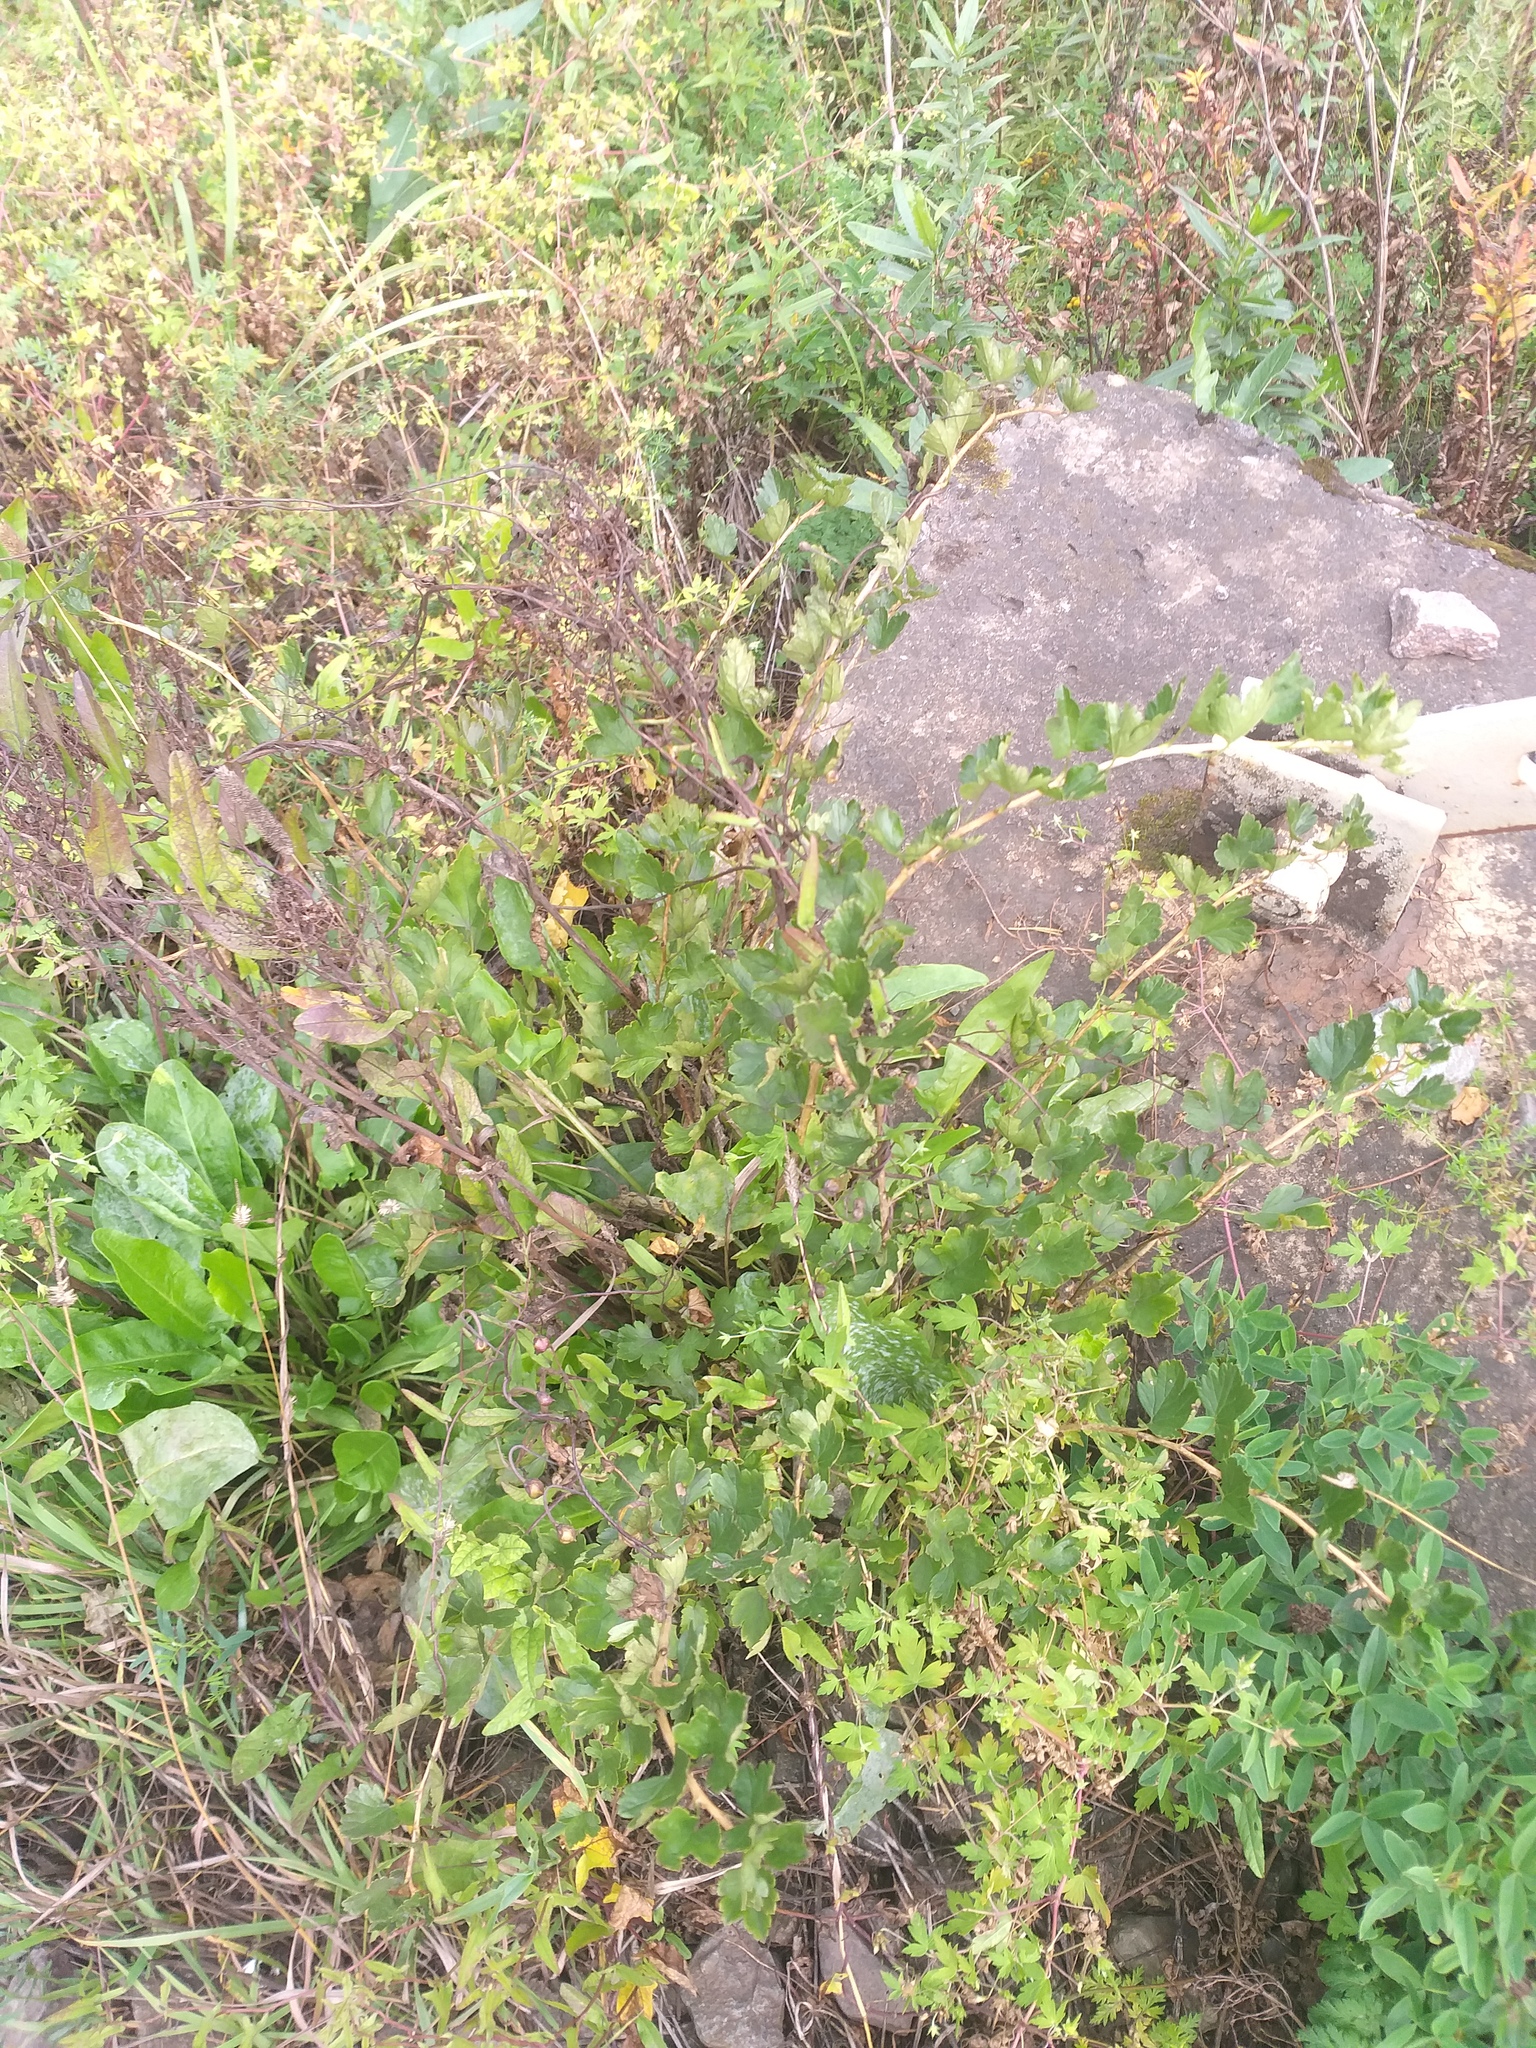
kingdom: Plantae
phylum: Tracheophyta
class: Magnoliopsida
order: Saxifragales
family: Grossulariaceae
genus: Ribes
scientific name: Ribes uva-crispa
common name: Gooseberry
